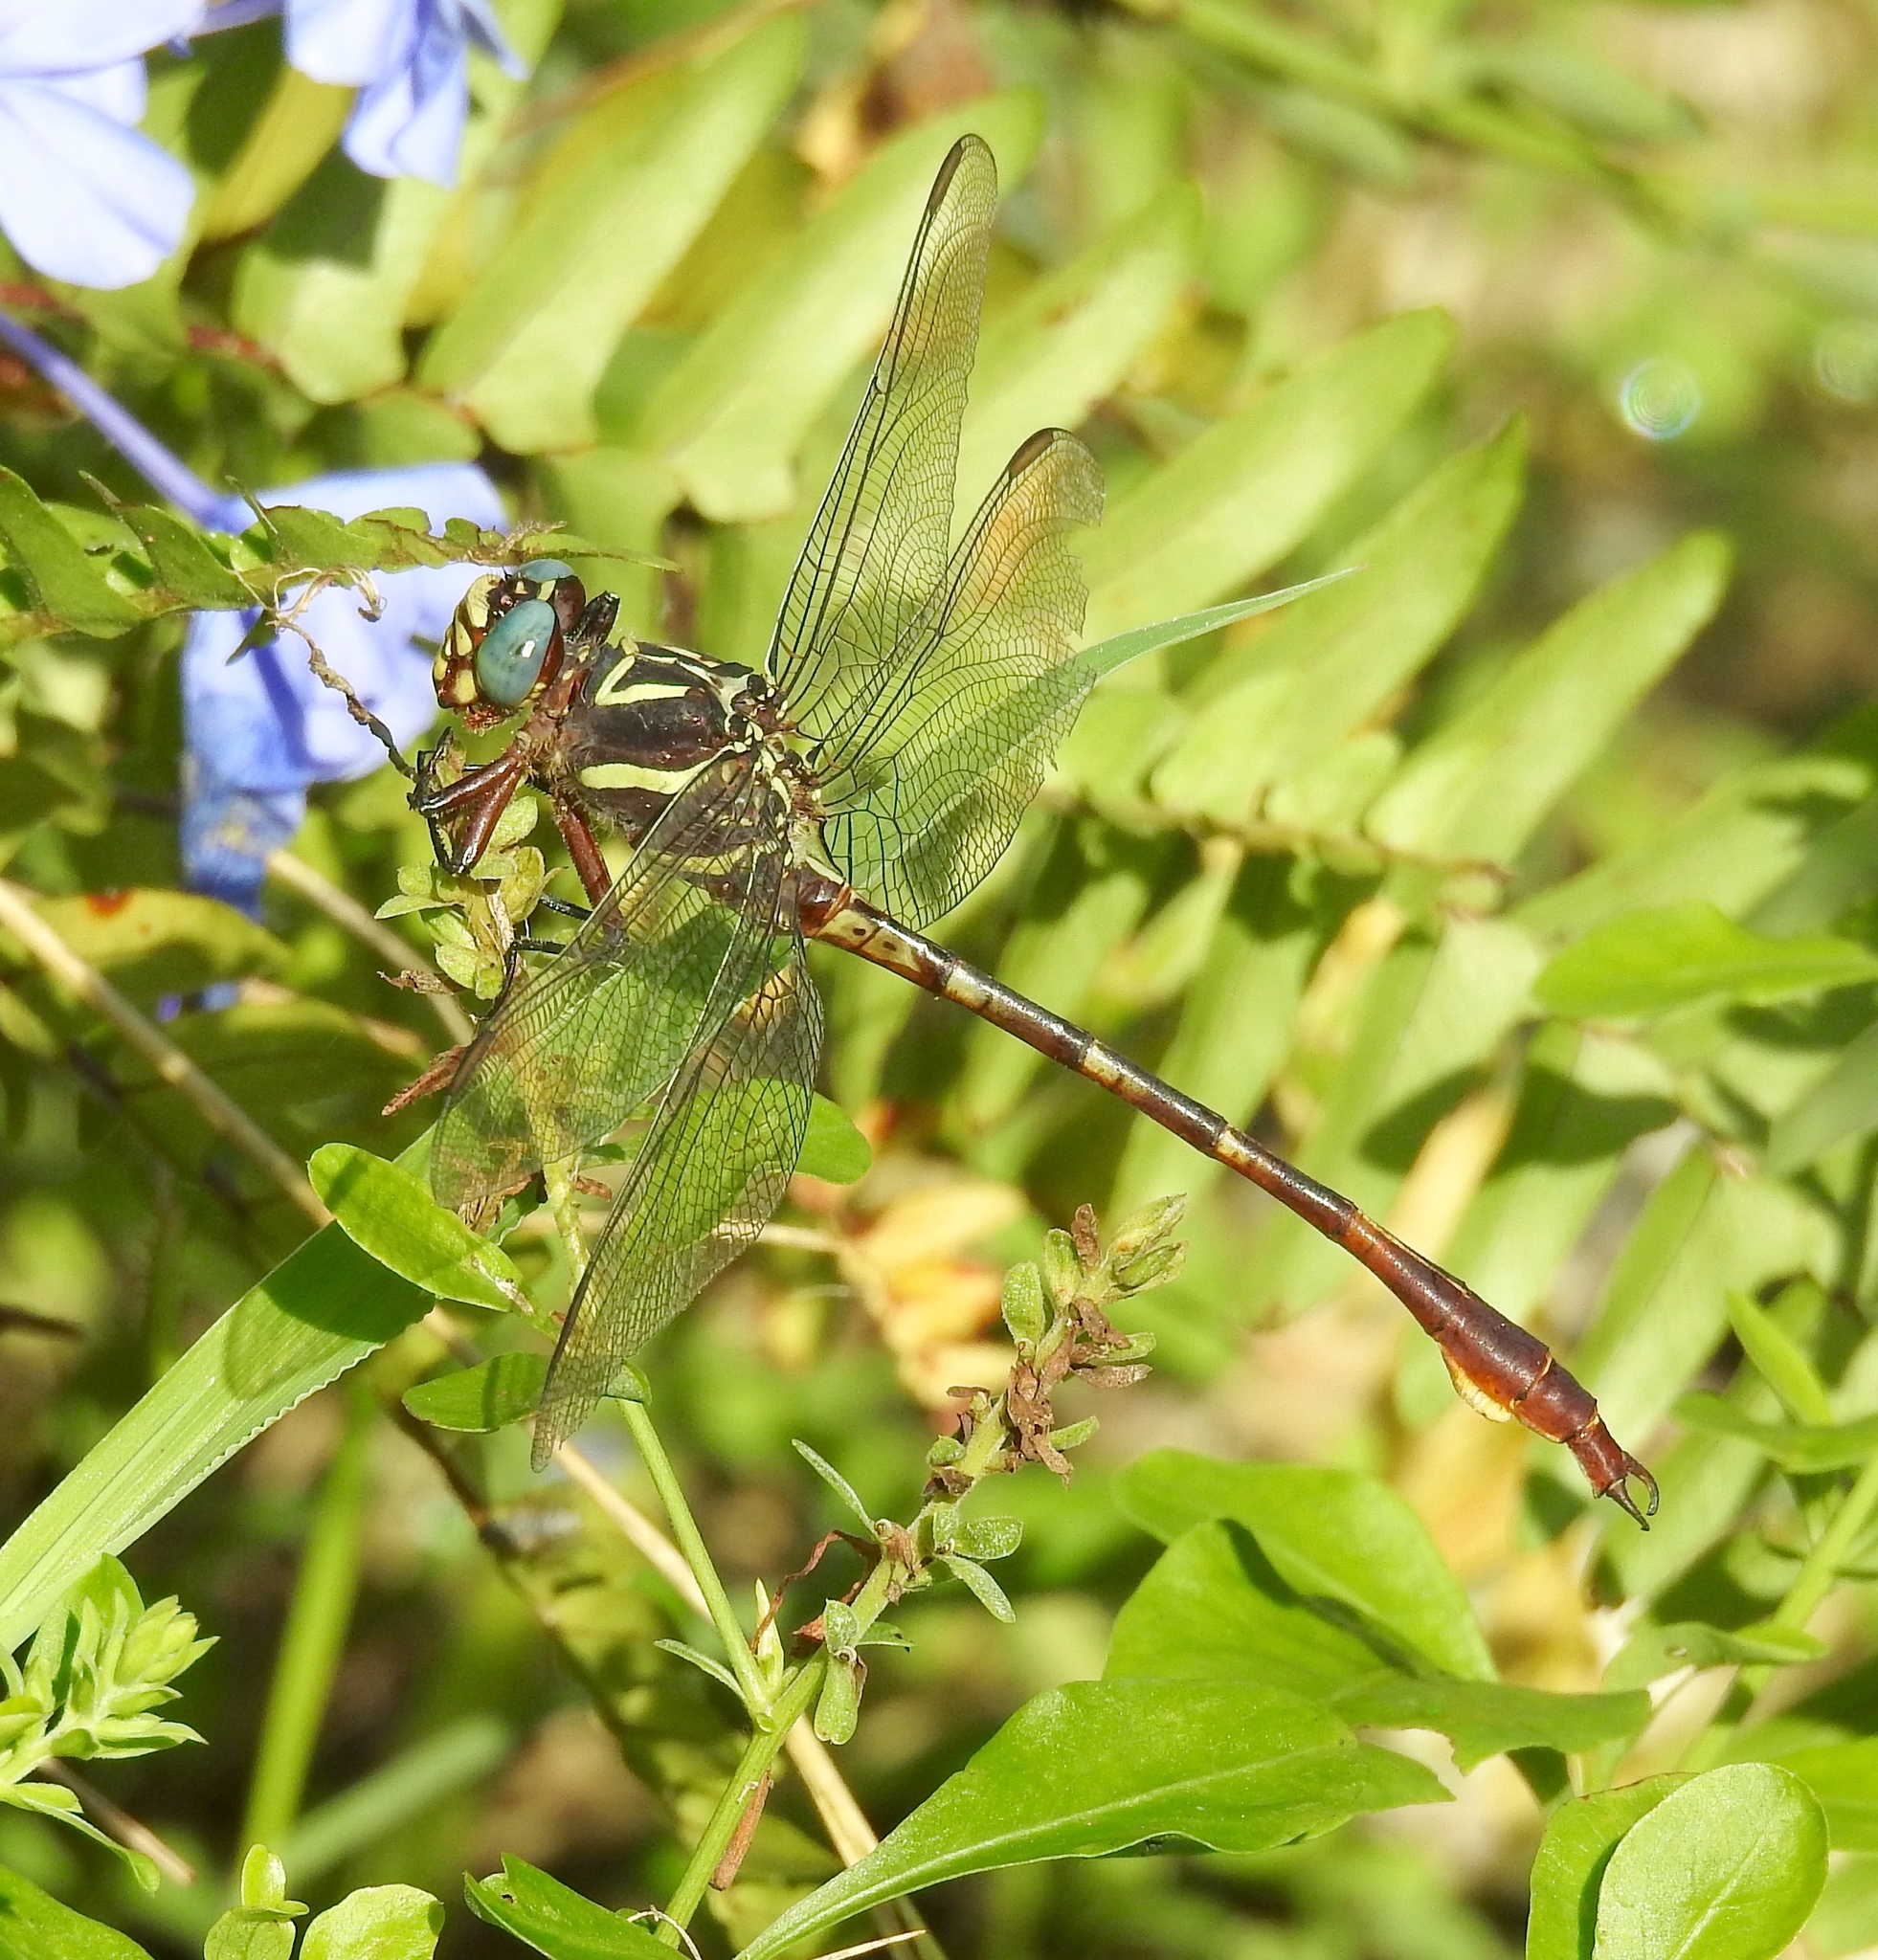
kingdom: Animalia
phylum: Arthropoda
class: Insecta
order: Odonata
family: Gomphidae
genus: Aphylla
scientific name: Aphylla williamsoni
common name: Two-striped forceptail
